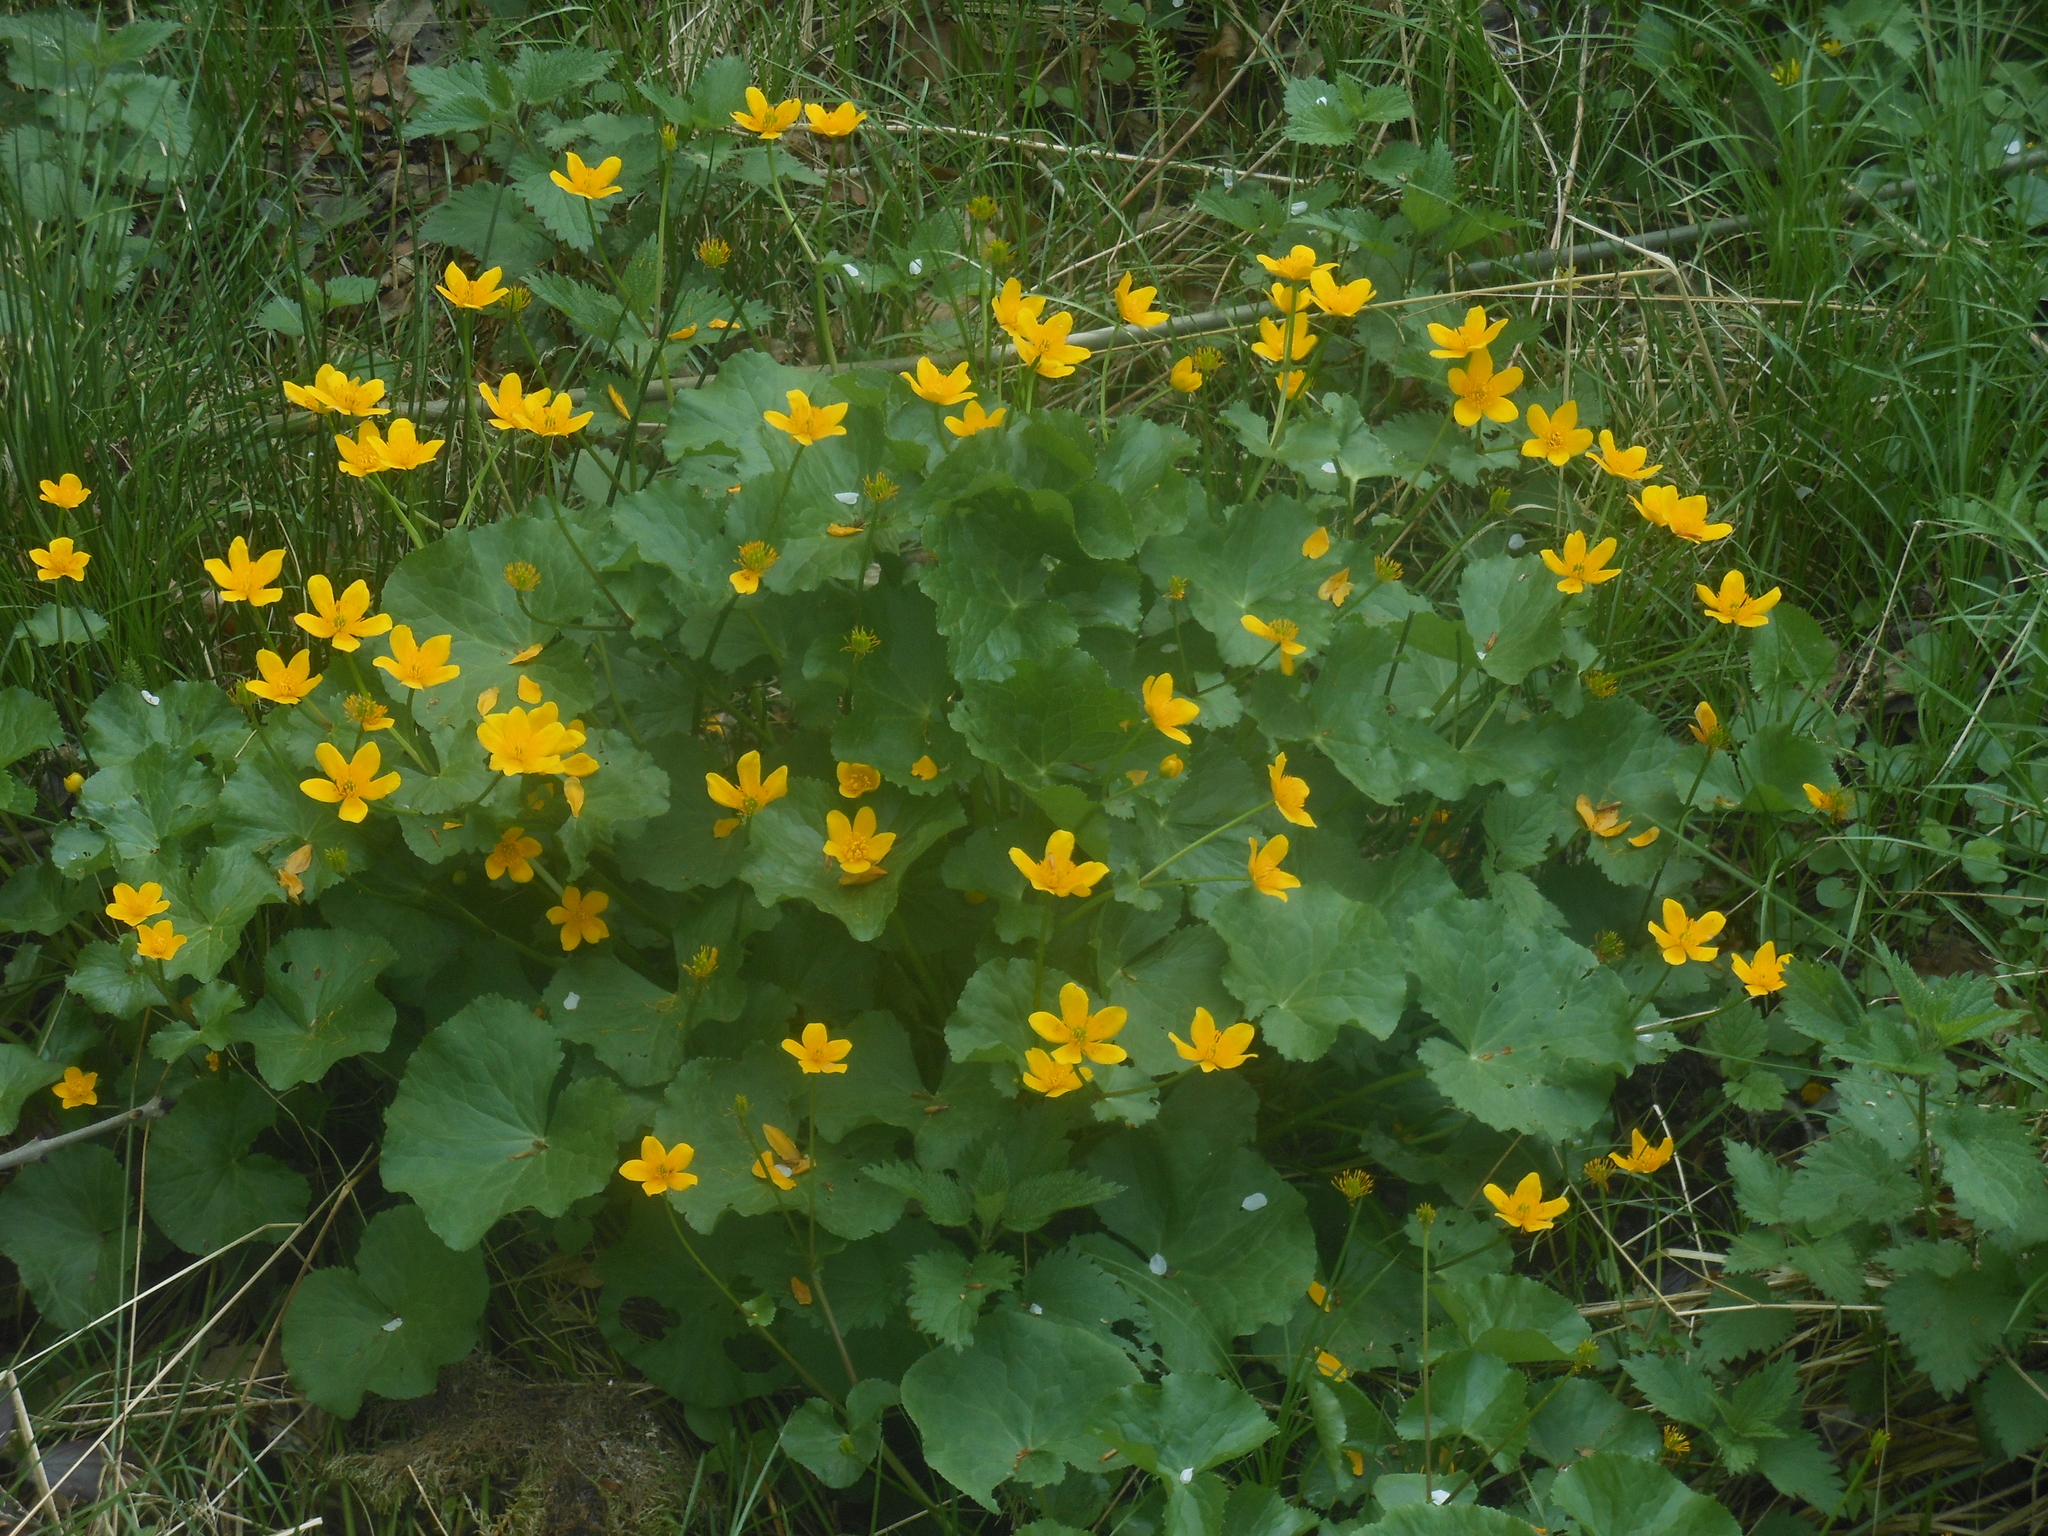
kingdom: Plantae
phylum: Tracheophyta
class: Magnoliopsida
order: Ranunculales
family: Ranunculaceae
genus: Caltha
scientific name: Caltha palustris
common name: Marsh marigold
